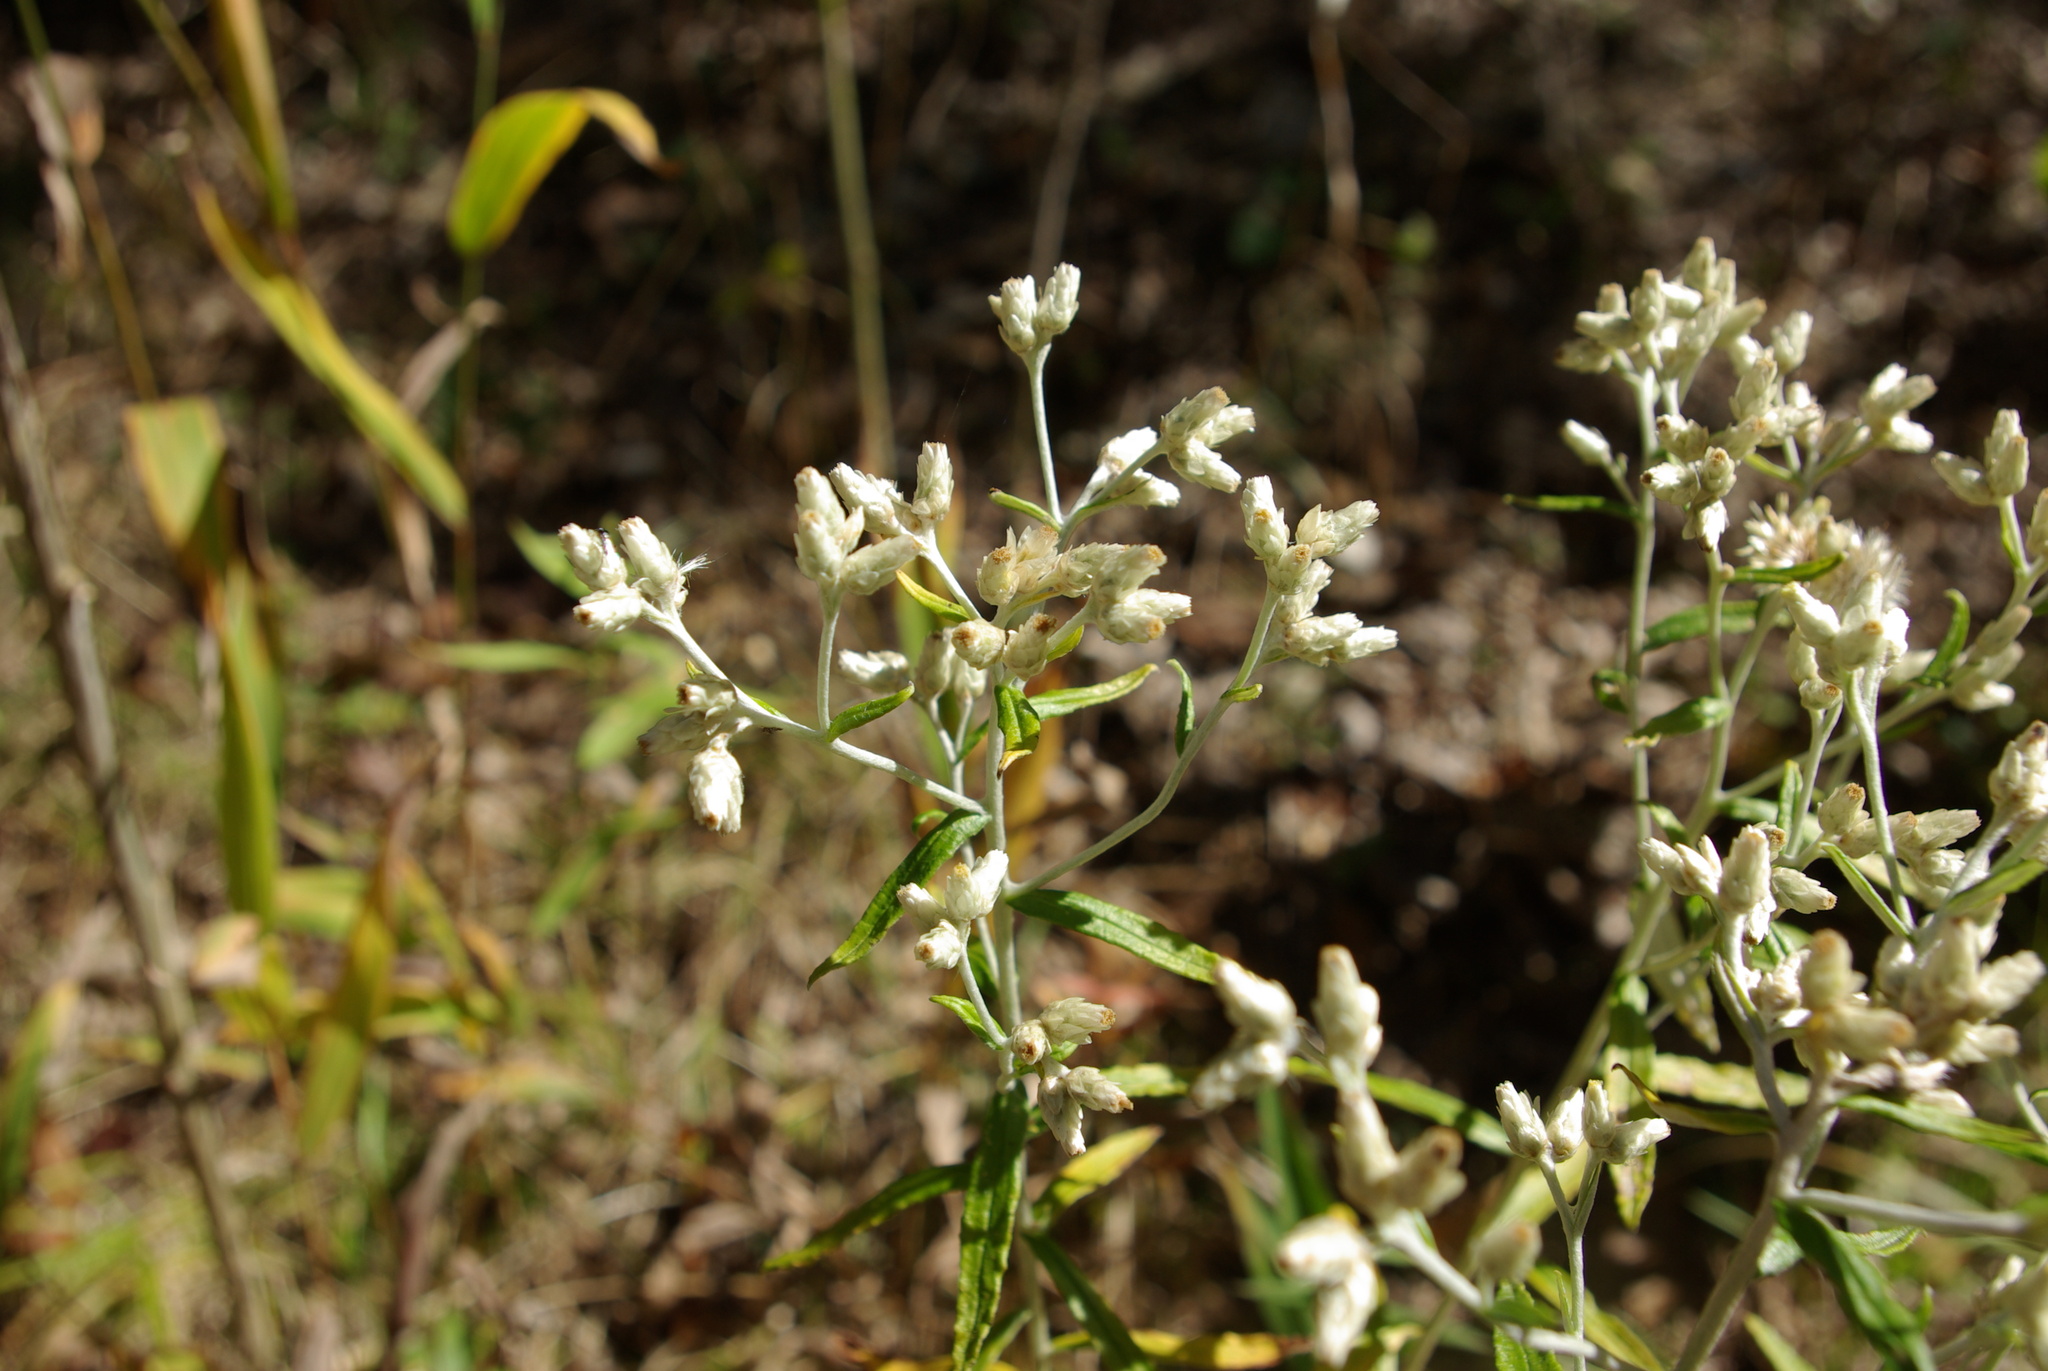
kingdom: Plantae
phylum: Tracheophyta
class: Magnoliopsida
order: Asterales
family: Asteraceae
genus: Pseudognaphalium
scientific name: Pseudognaphalium obtusifolium
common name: Eastern rabbit-tobacco
